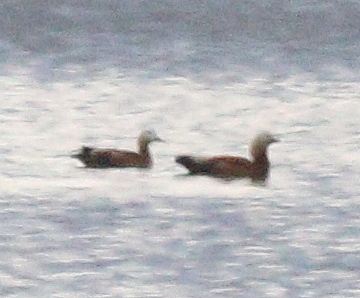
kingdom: Animalia
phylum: Chordata
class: Aves
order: Anseriformes
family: Anatidae
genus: Tadorna
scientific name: Tadorna ferruginea
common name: Ruddy shelduck
